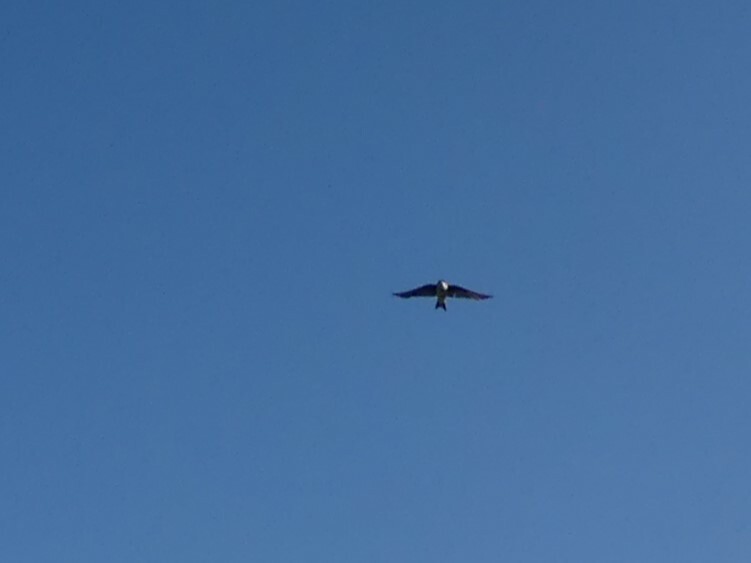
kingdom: Animalia
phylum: Chordata
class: Aves
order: Passeriformes
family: Hirundinidae
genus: Tachycineta
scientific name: Tachycineta bicolor
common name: Tree swallow
